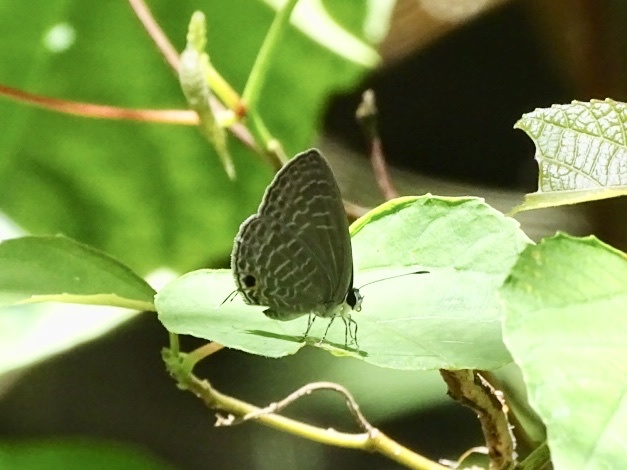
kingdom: Animalia
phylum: Arthropoda
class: Insecta
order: Lepidoptera
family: Lycaenidae
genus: Jamides
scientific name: Jamides bochus
